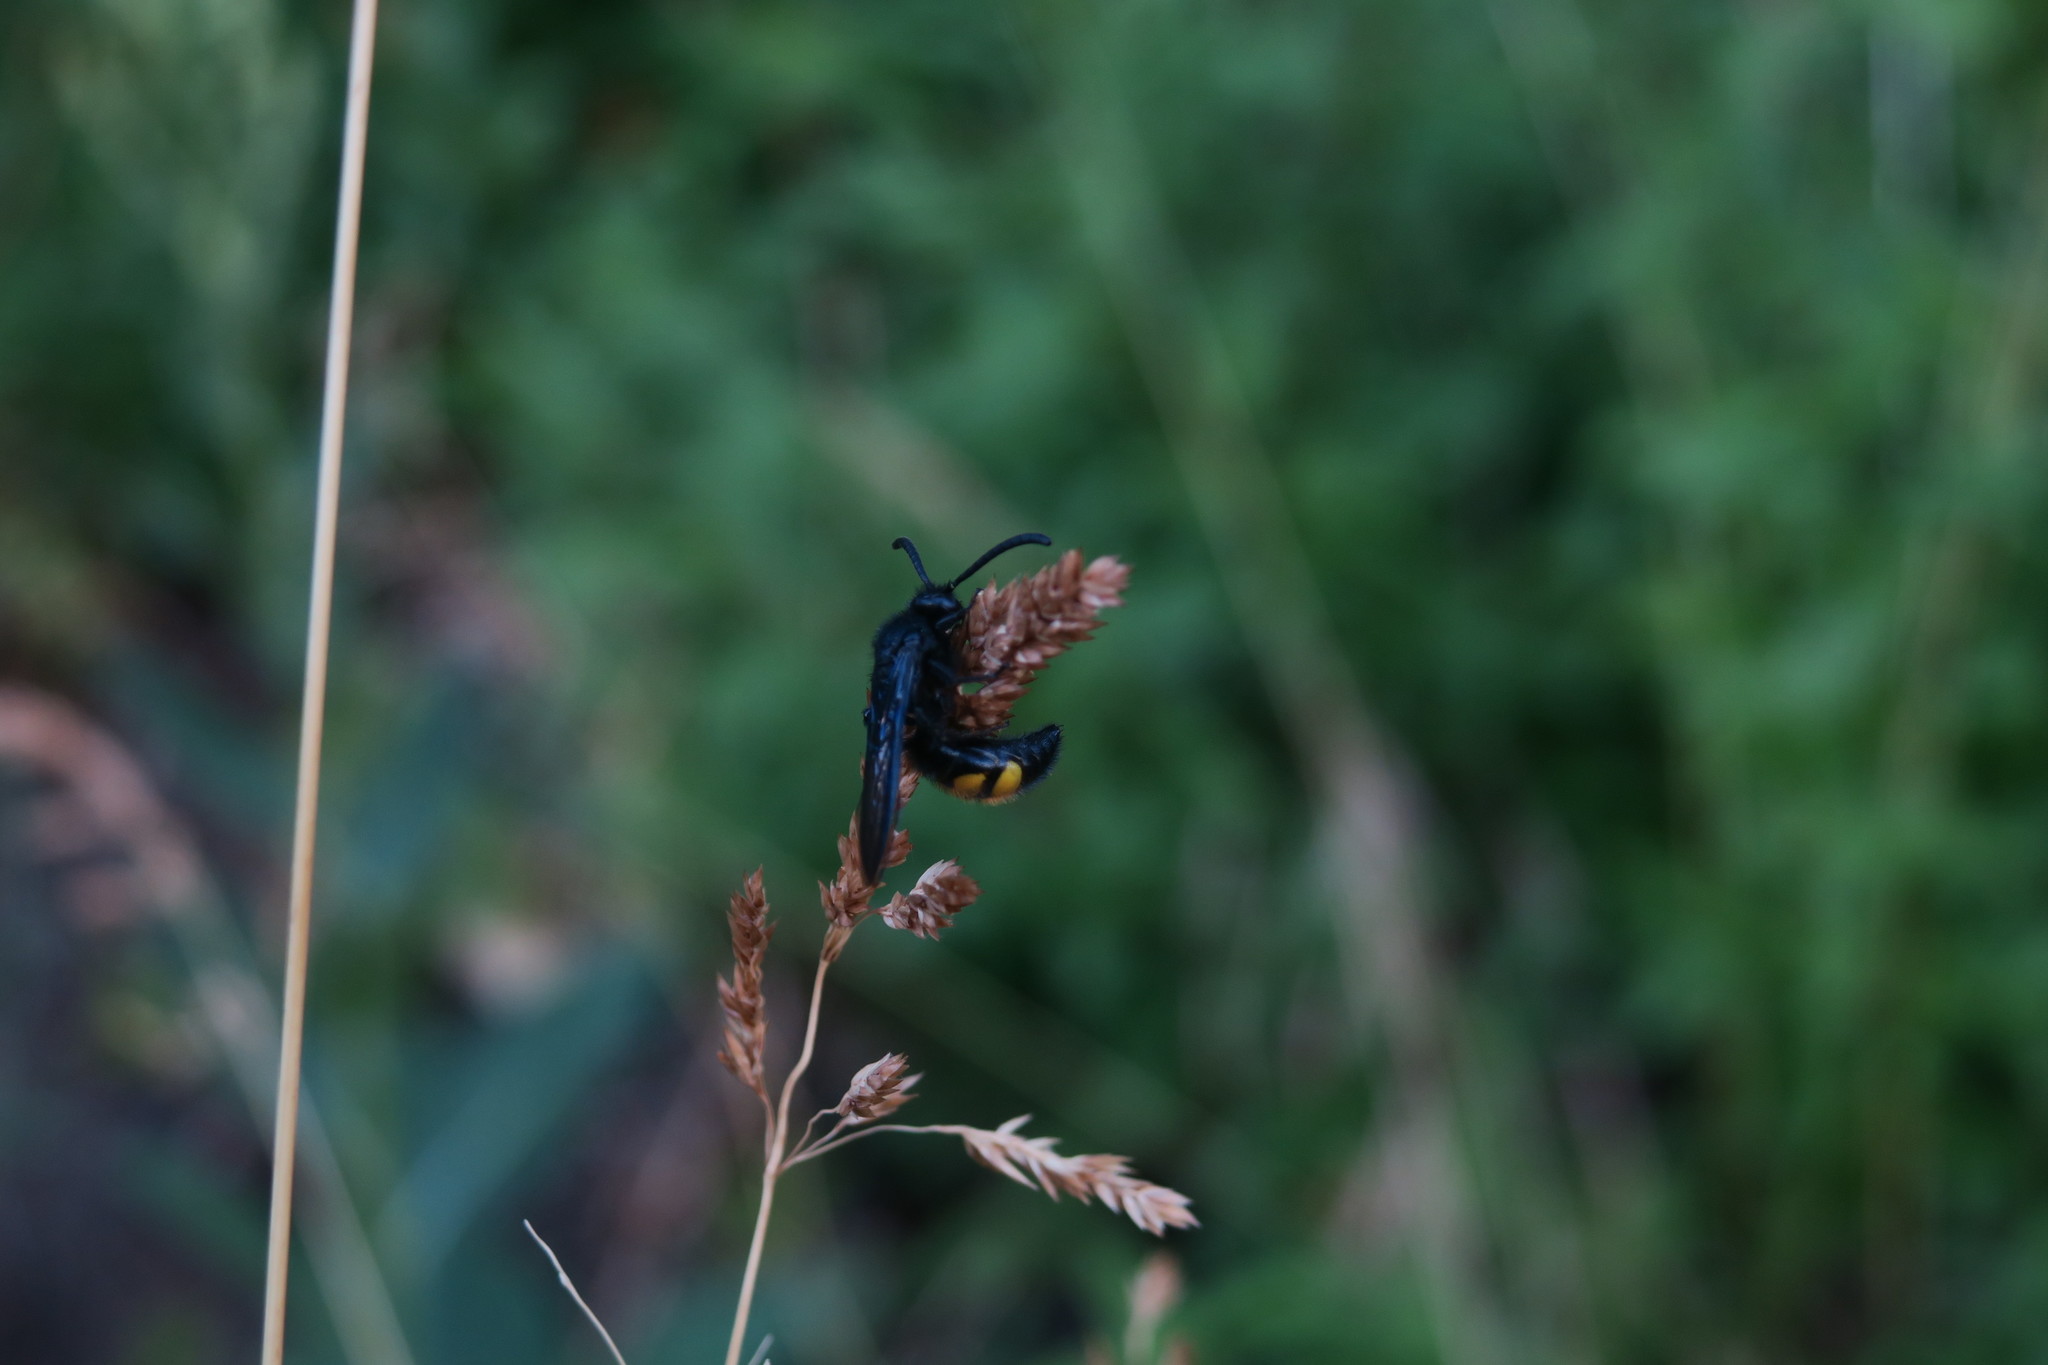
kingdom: Animalia
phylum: Arthropoda
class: Insecta
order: Hymenoptera
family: Scoliidae
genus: Scolia
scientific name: Scolia hirta
